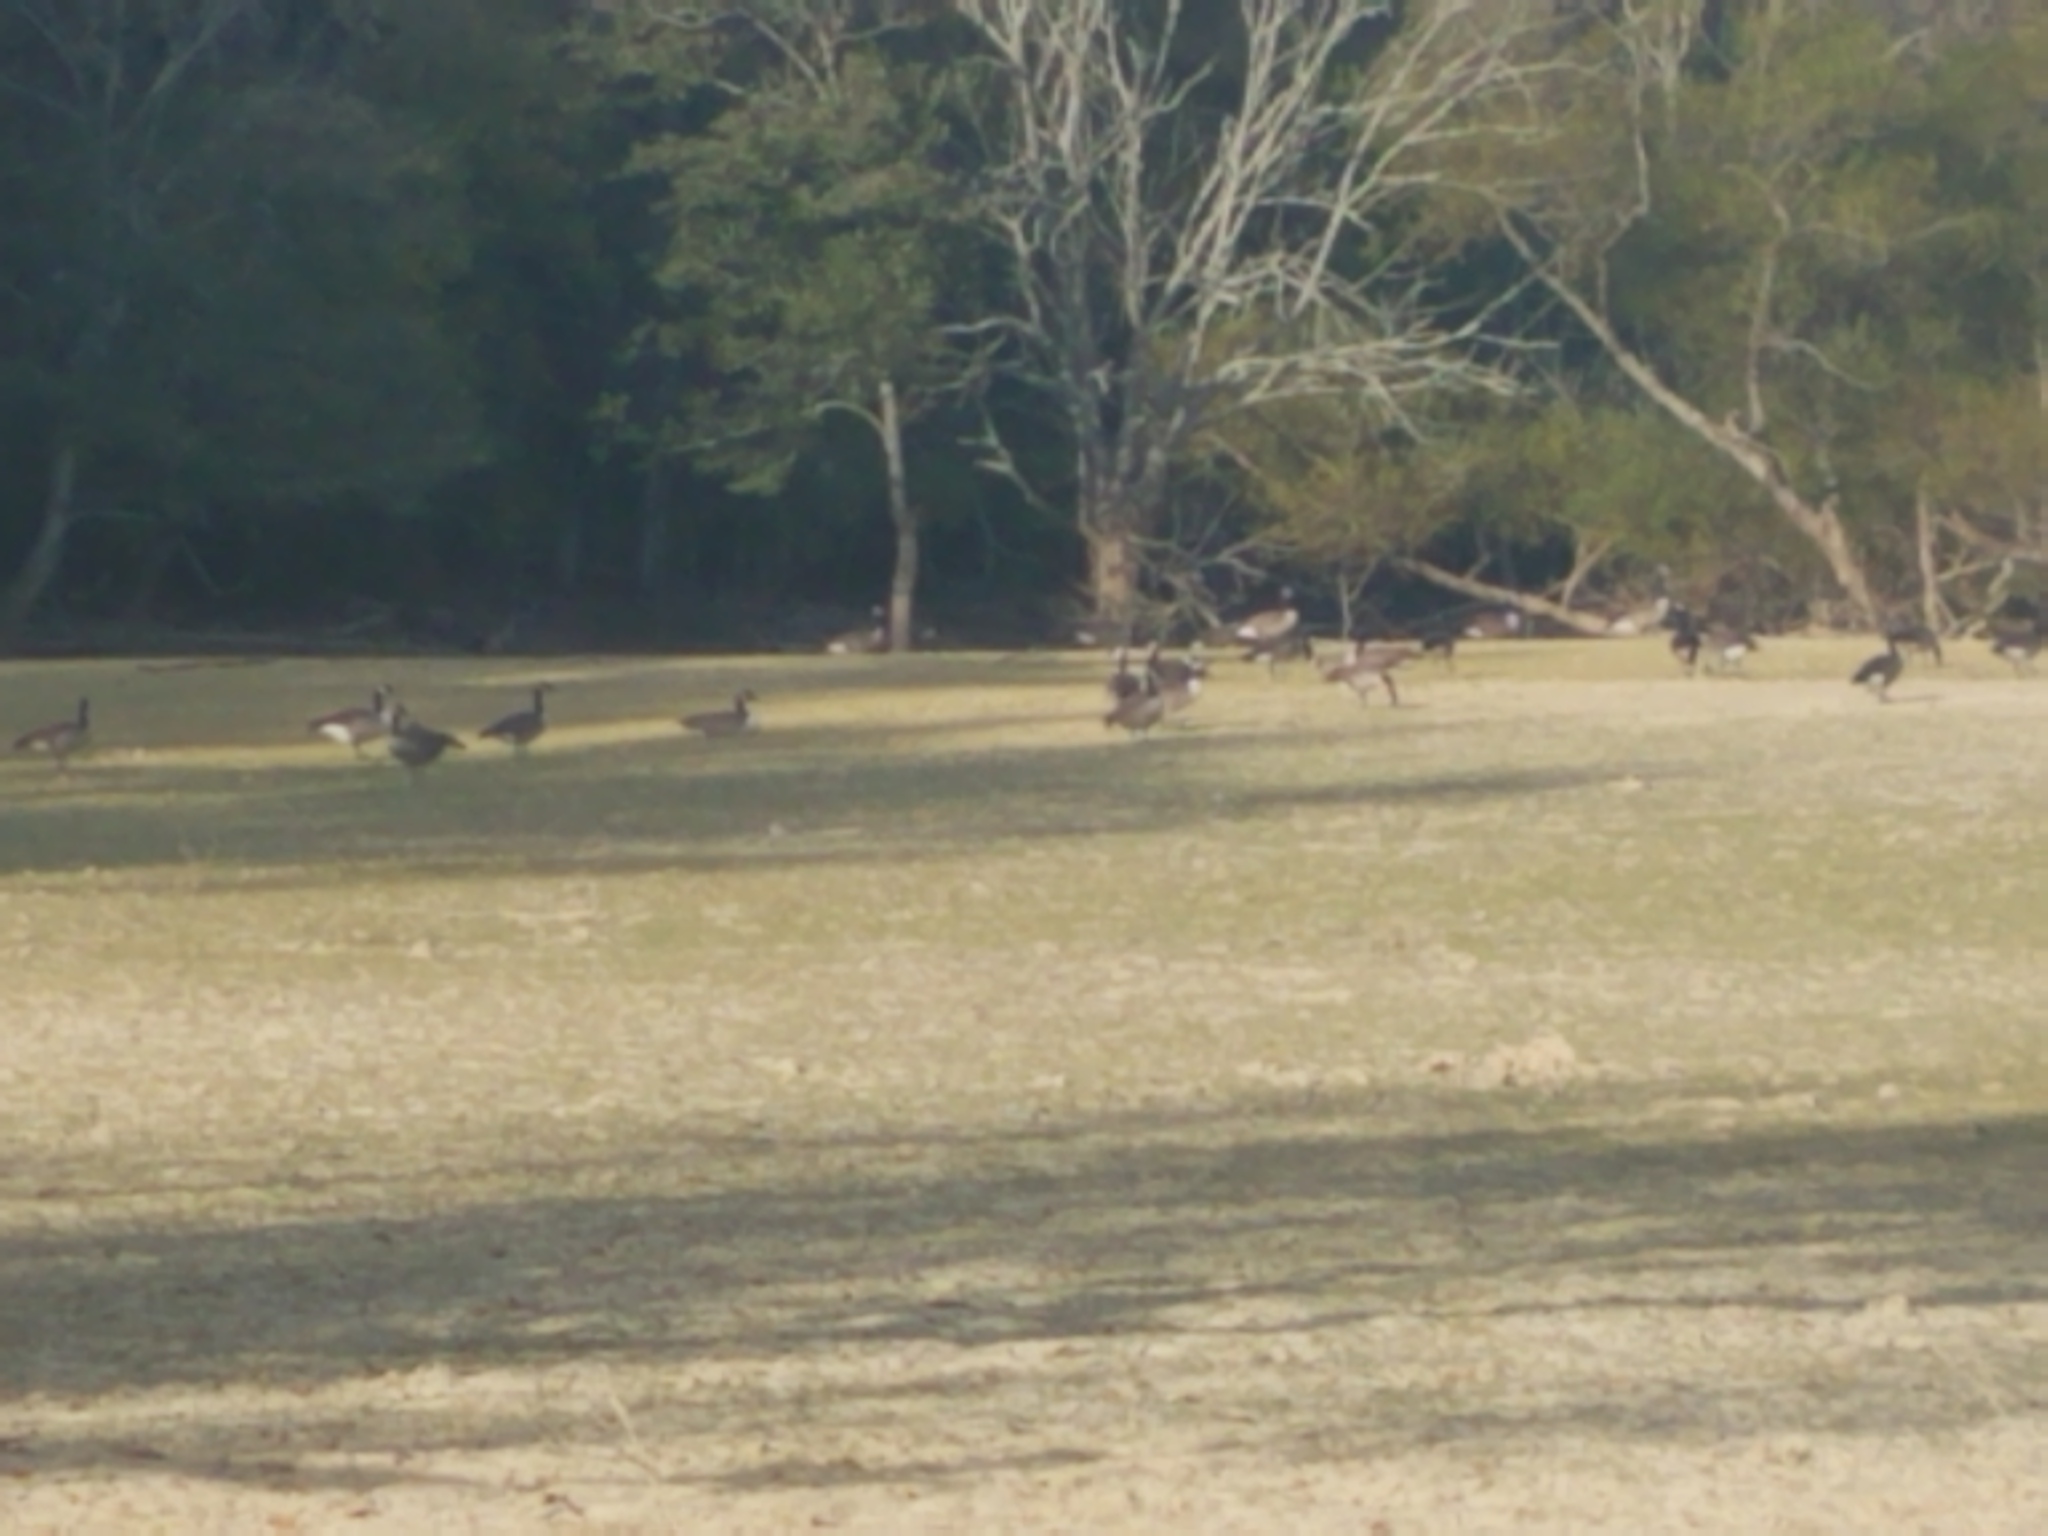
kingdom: Animalia
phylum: Chordata
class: Aves
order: Anseriformes
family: Anatidae
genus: Branta
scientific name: Branta canadensis
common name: Canada goose
